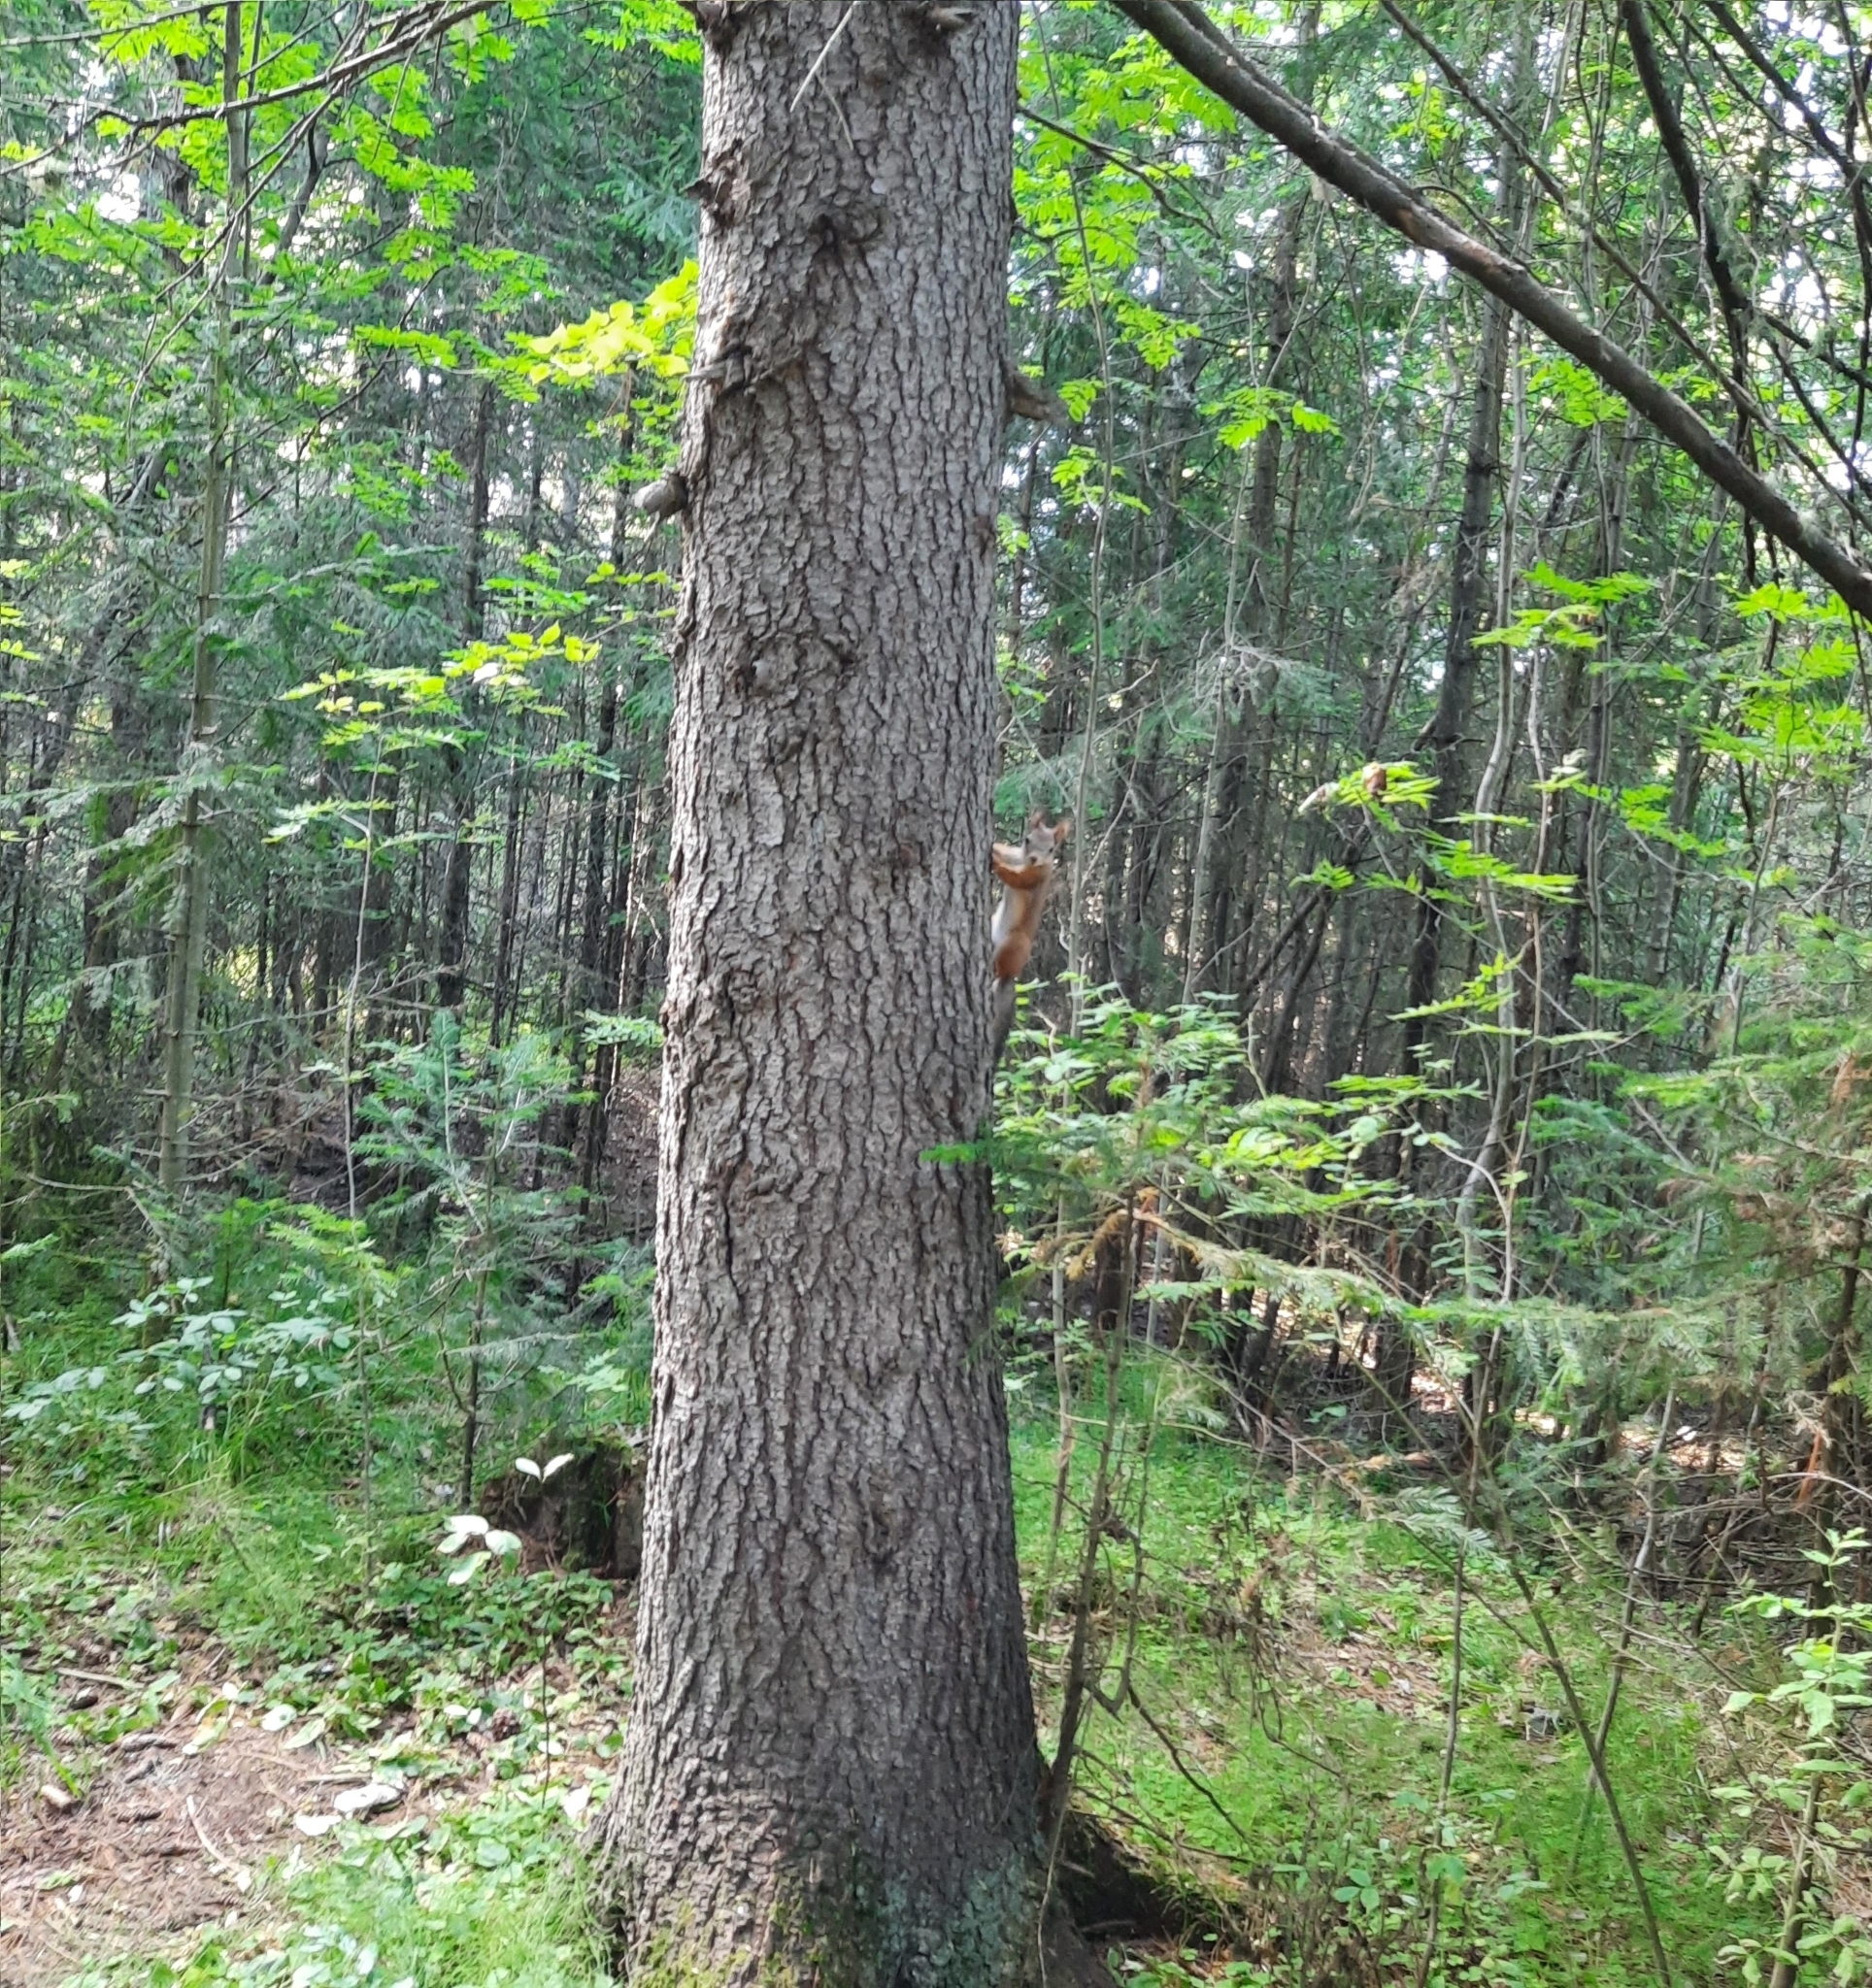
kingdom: Animalia
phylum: Chordata
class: Mammalia
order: Rodentia
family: Sciuridae
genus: Sciurus
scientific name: Sciurus vulgaris
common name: Eurasian red squirrel
